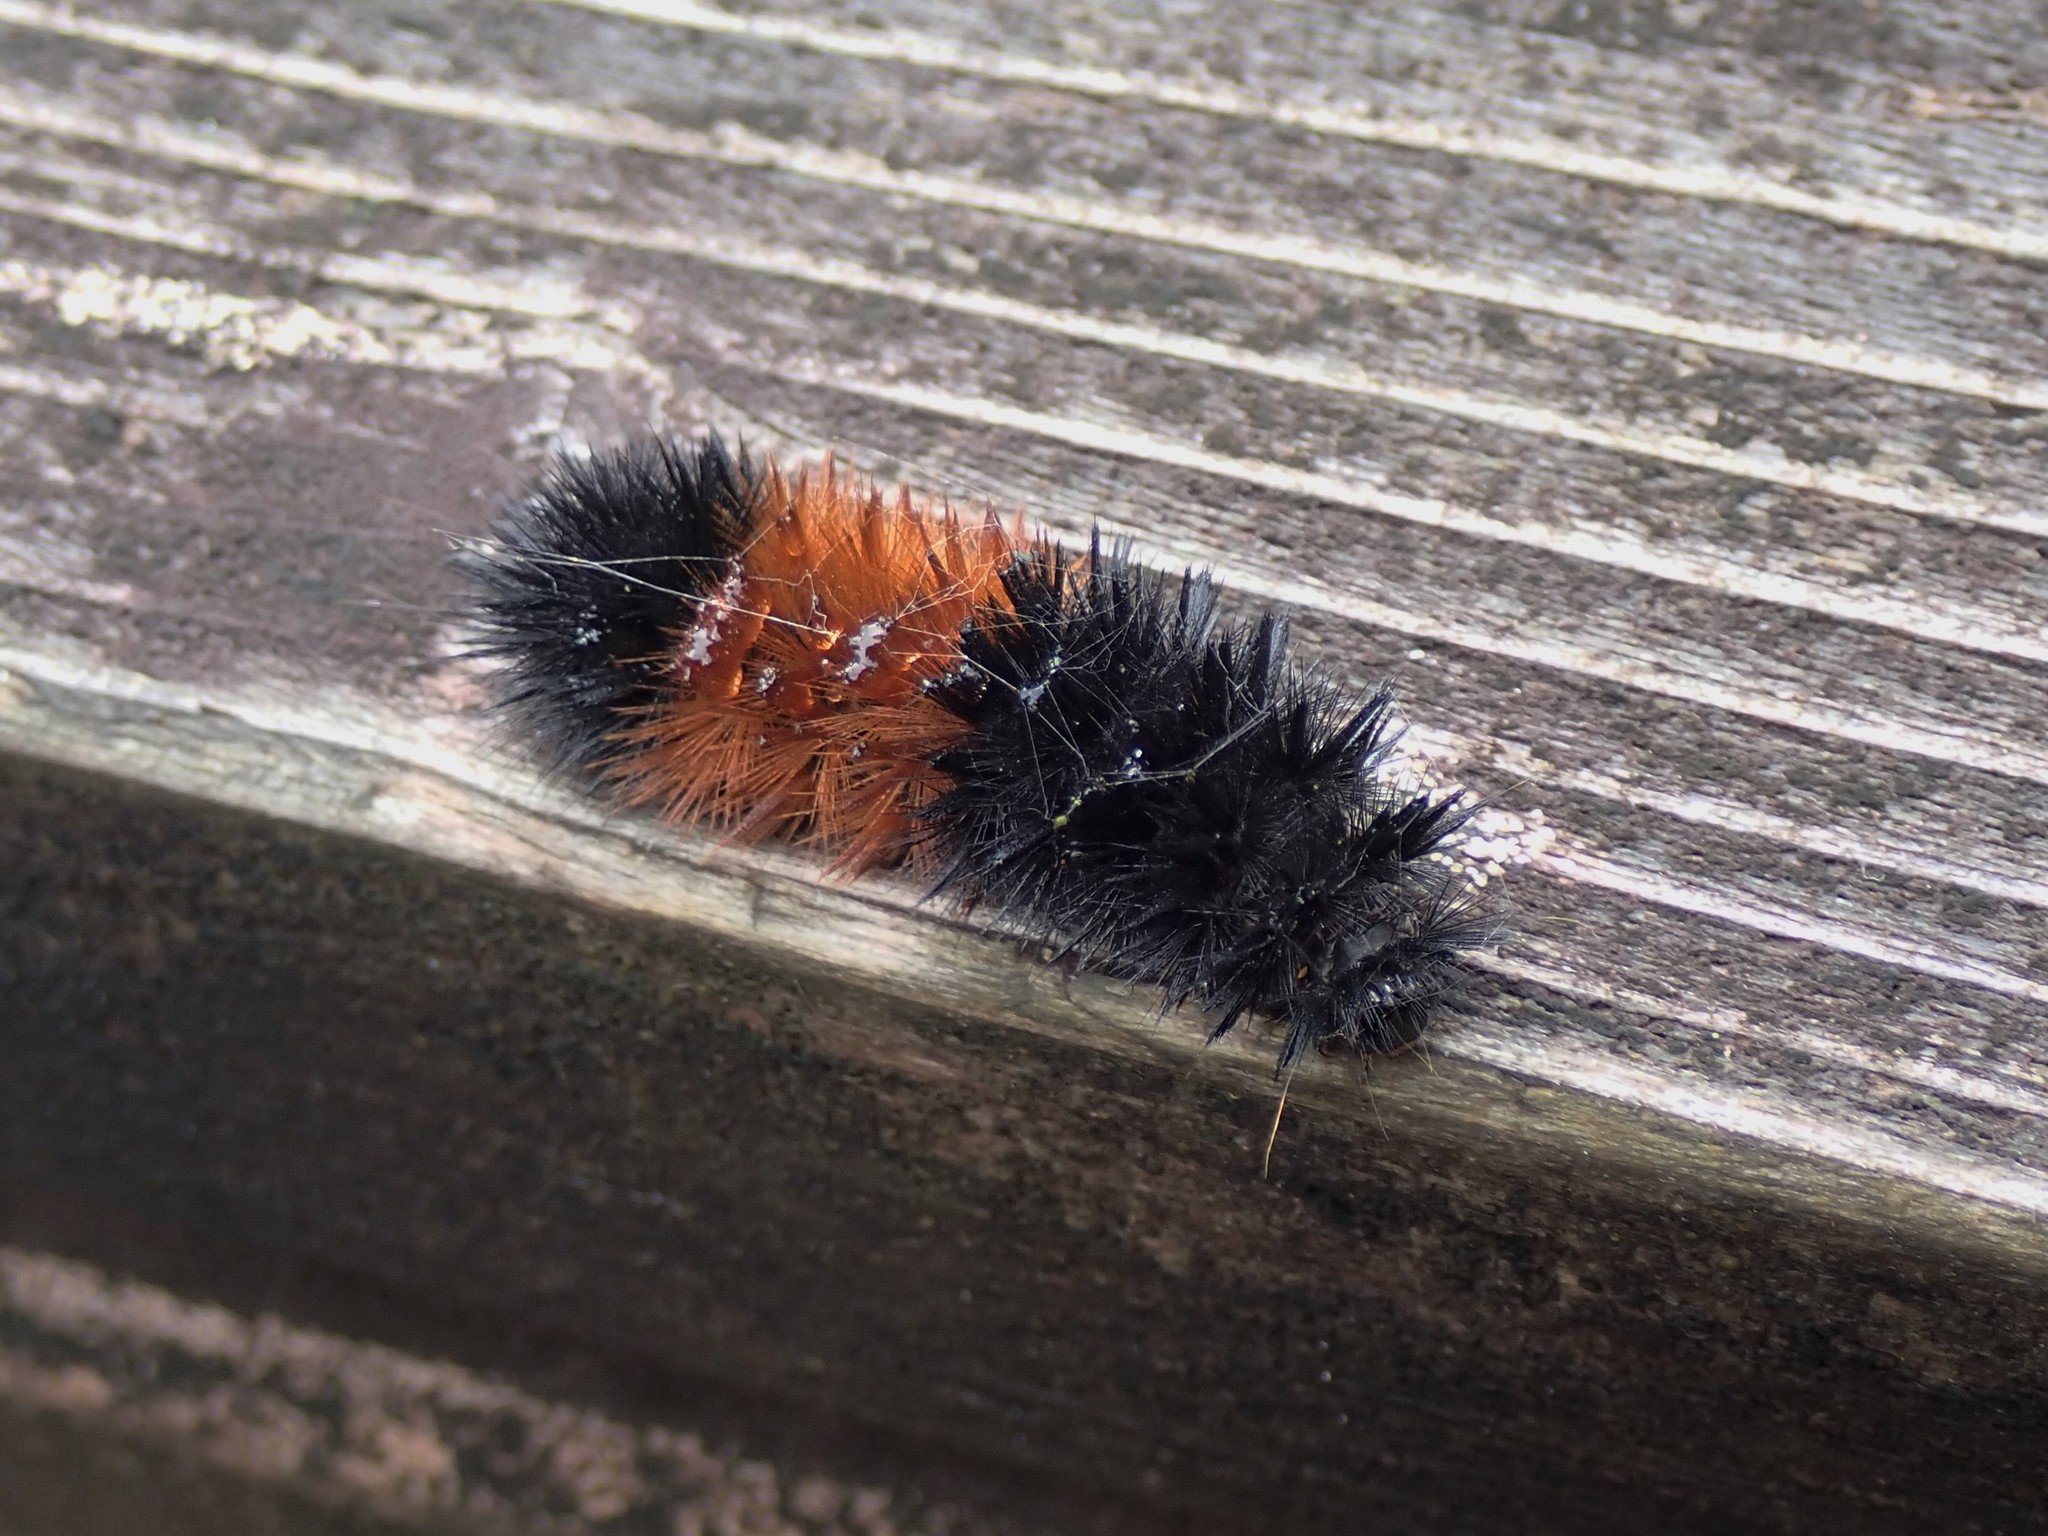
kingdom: Animalia
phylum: Arthropoda
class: Insecta
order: Lepidoptera
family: Erebidae
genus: Pyrrharctia
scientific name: Pyrrharctia isabella
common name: Isabella tiger moth
